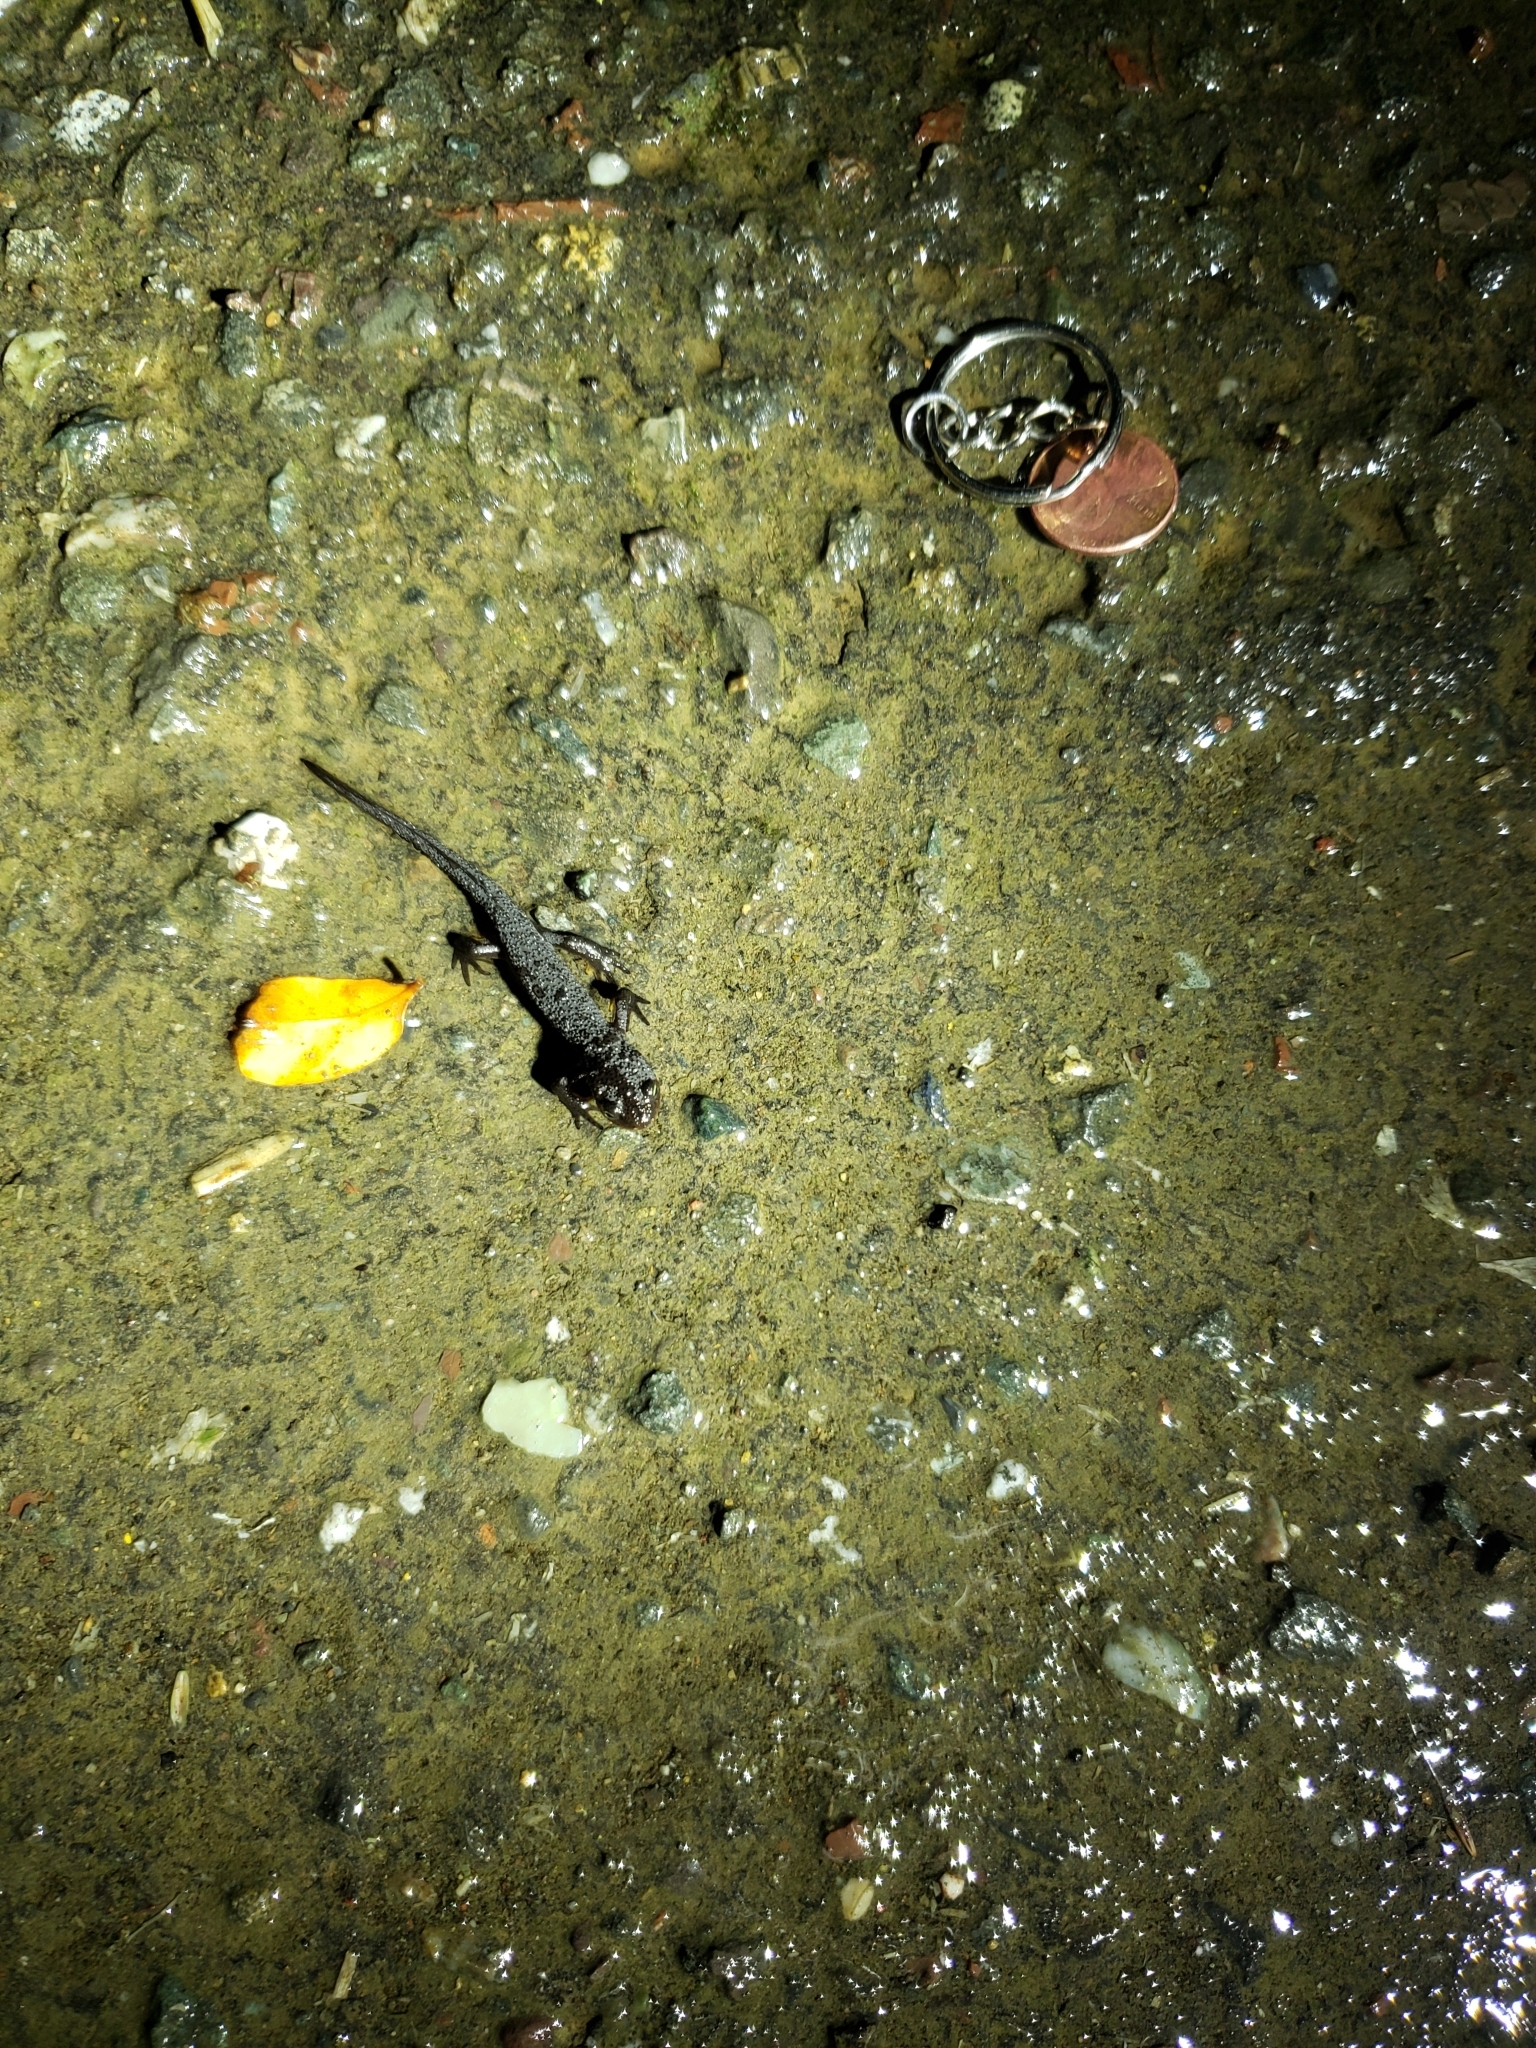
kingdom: Animalia
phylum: Chordata
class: Amphibia
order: Caudata
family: Salamandridae
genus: Taricha
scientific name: Taricha granulosa
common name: Roughskin newt
